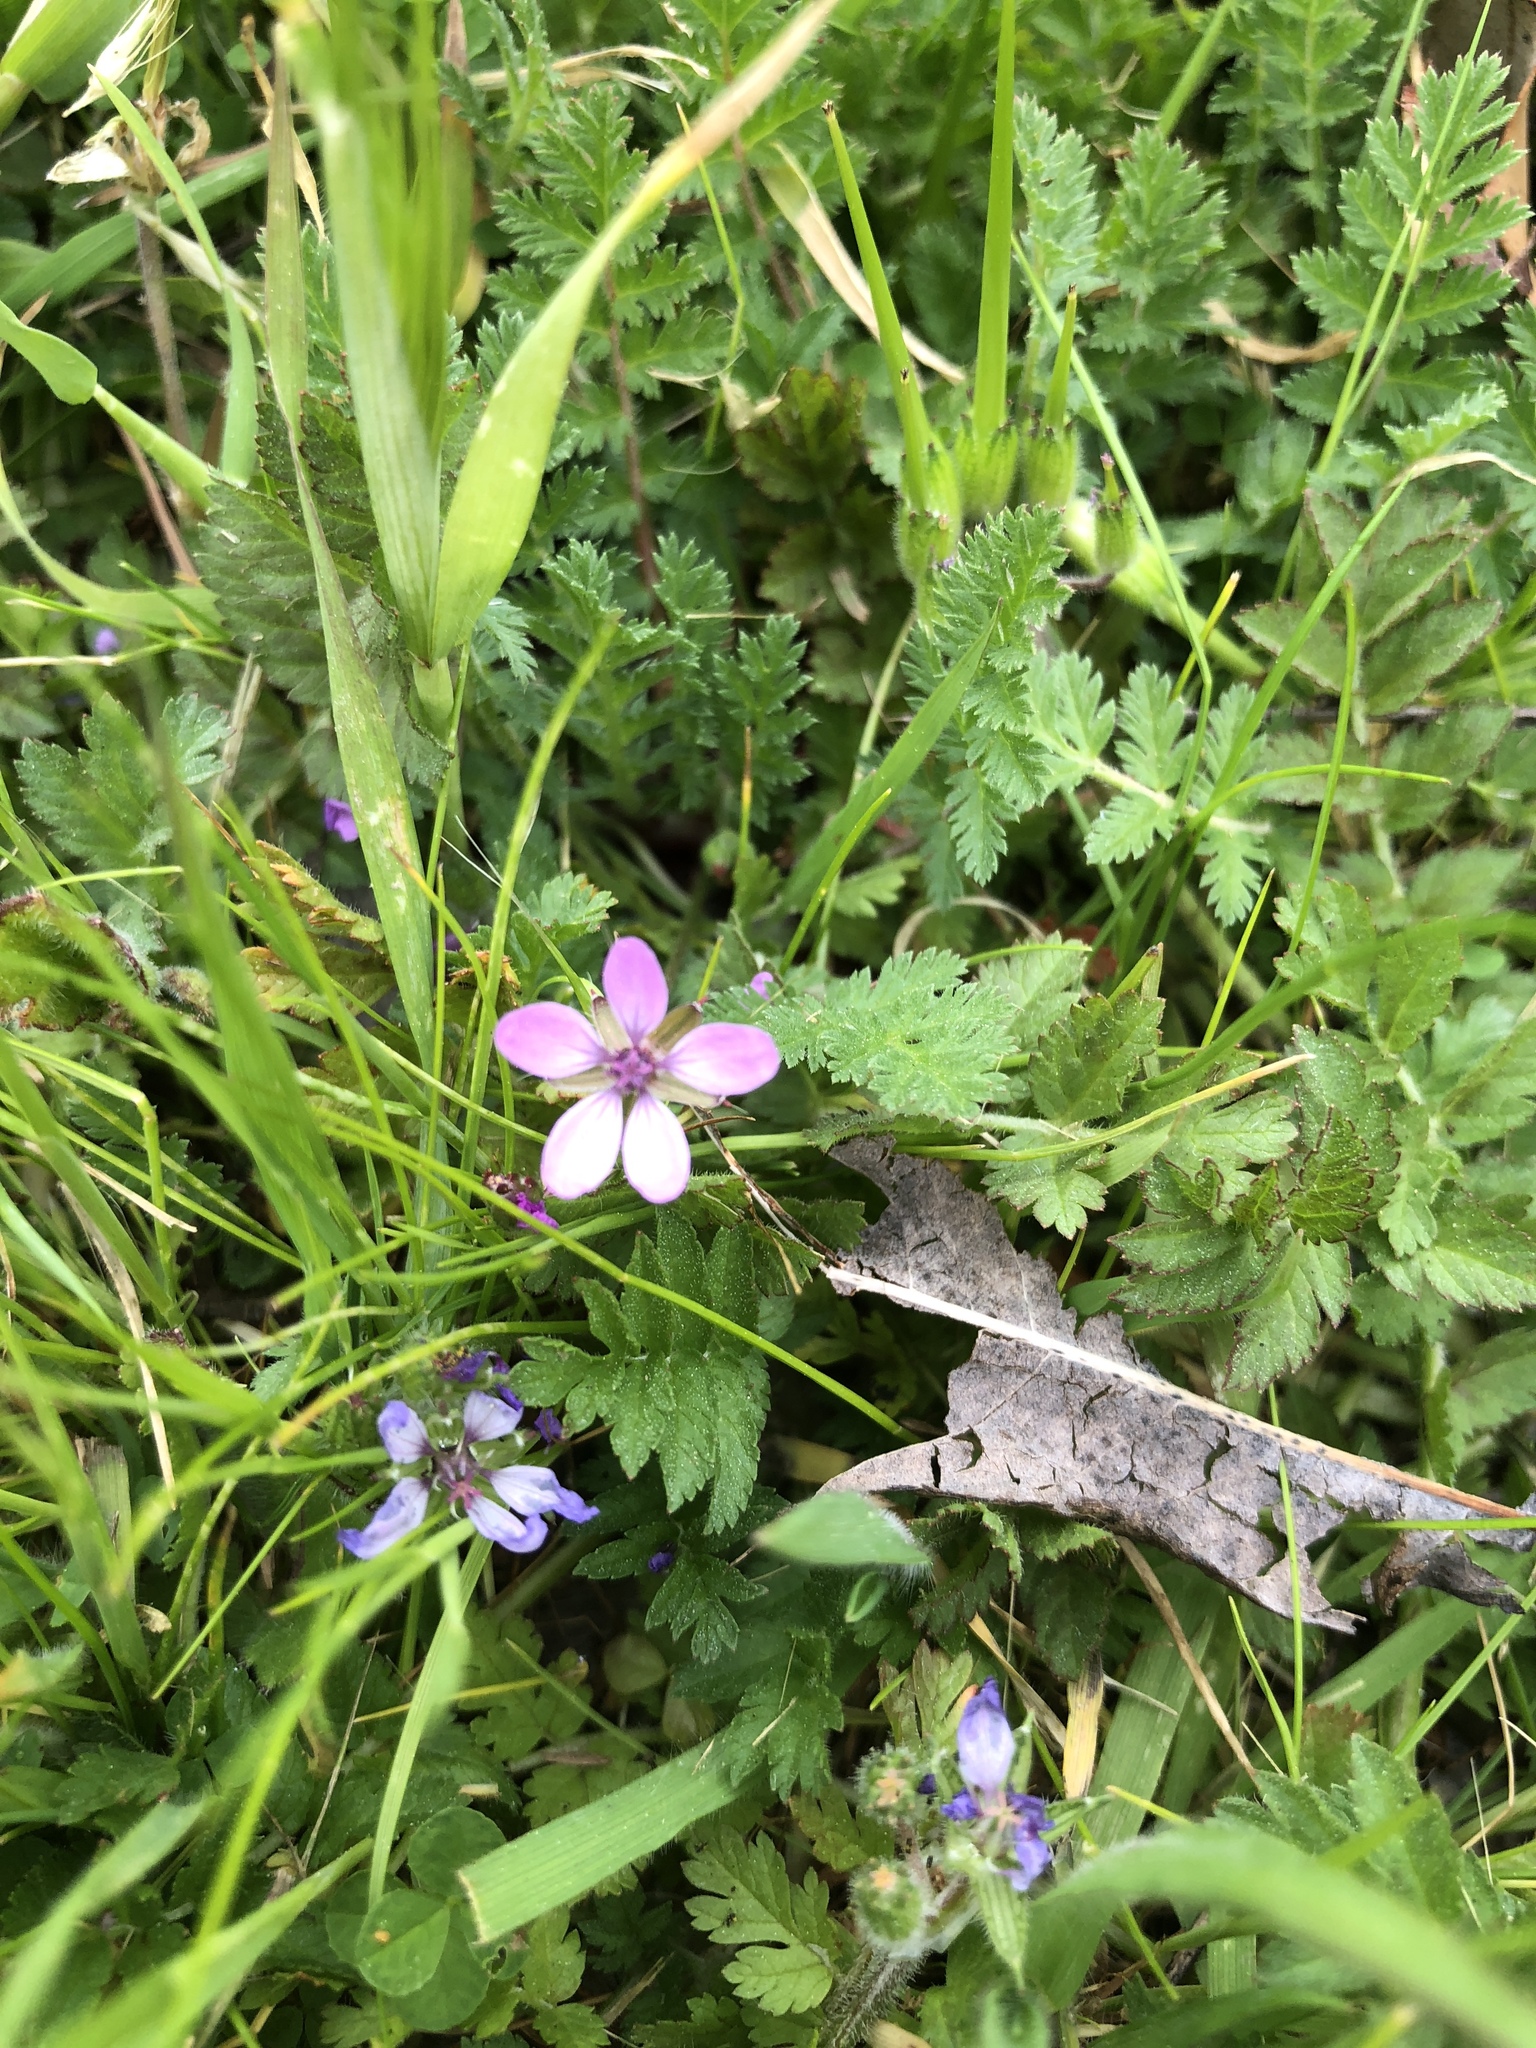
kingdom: Plantae
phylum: Tracheophyta
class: Magnoliopsida
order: Geraniales
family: Geraniaceae
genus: Erodium
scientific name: Erodium cicutarium
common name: Common stork's-bill
